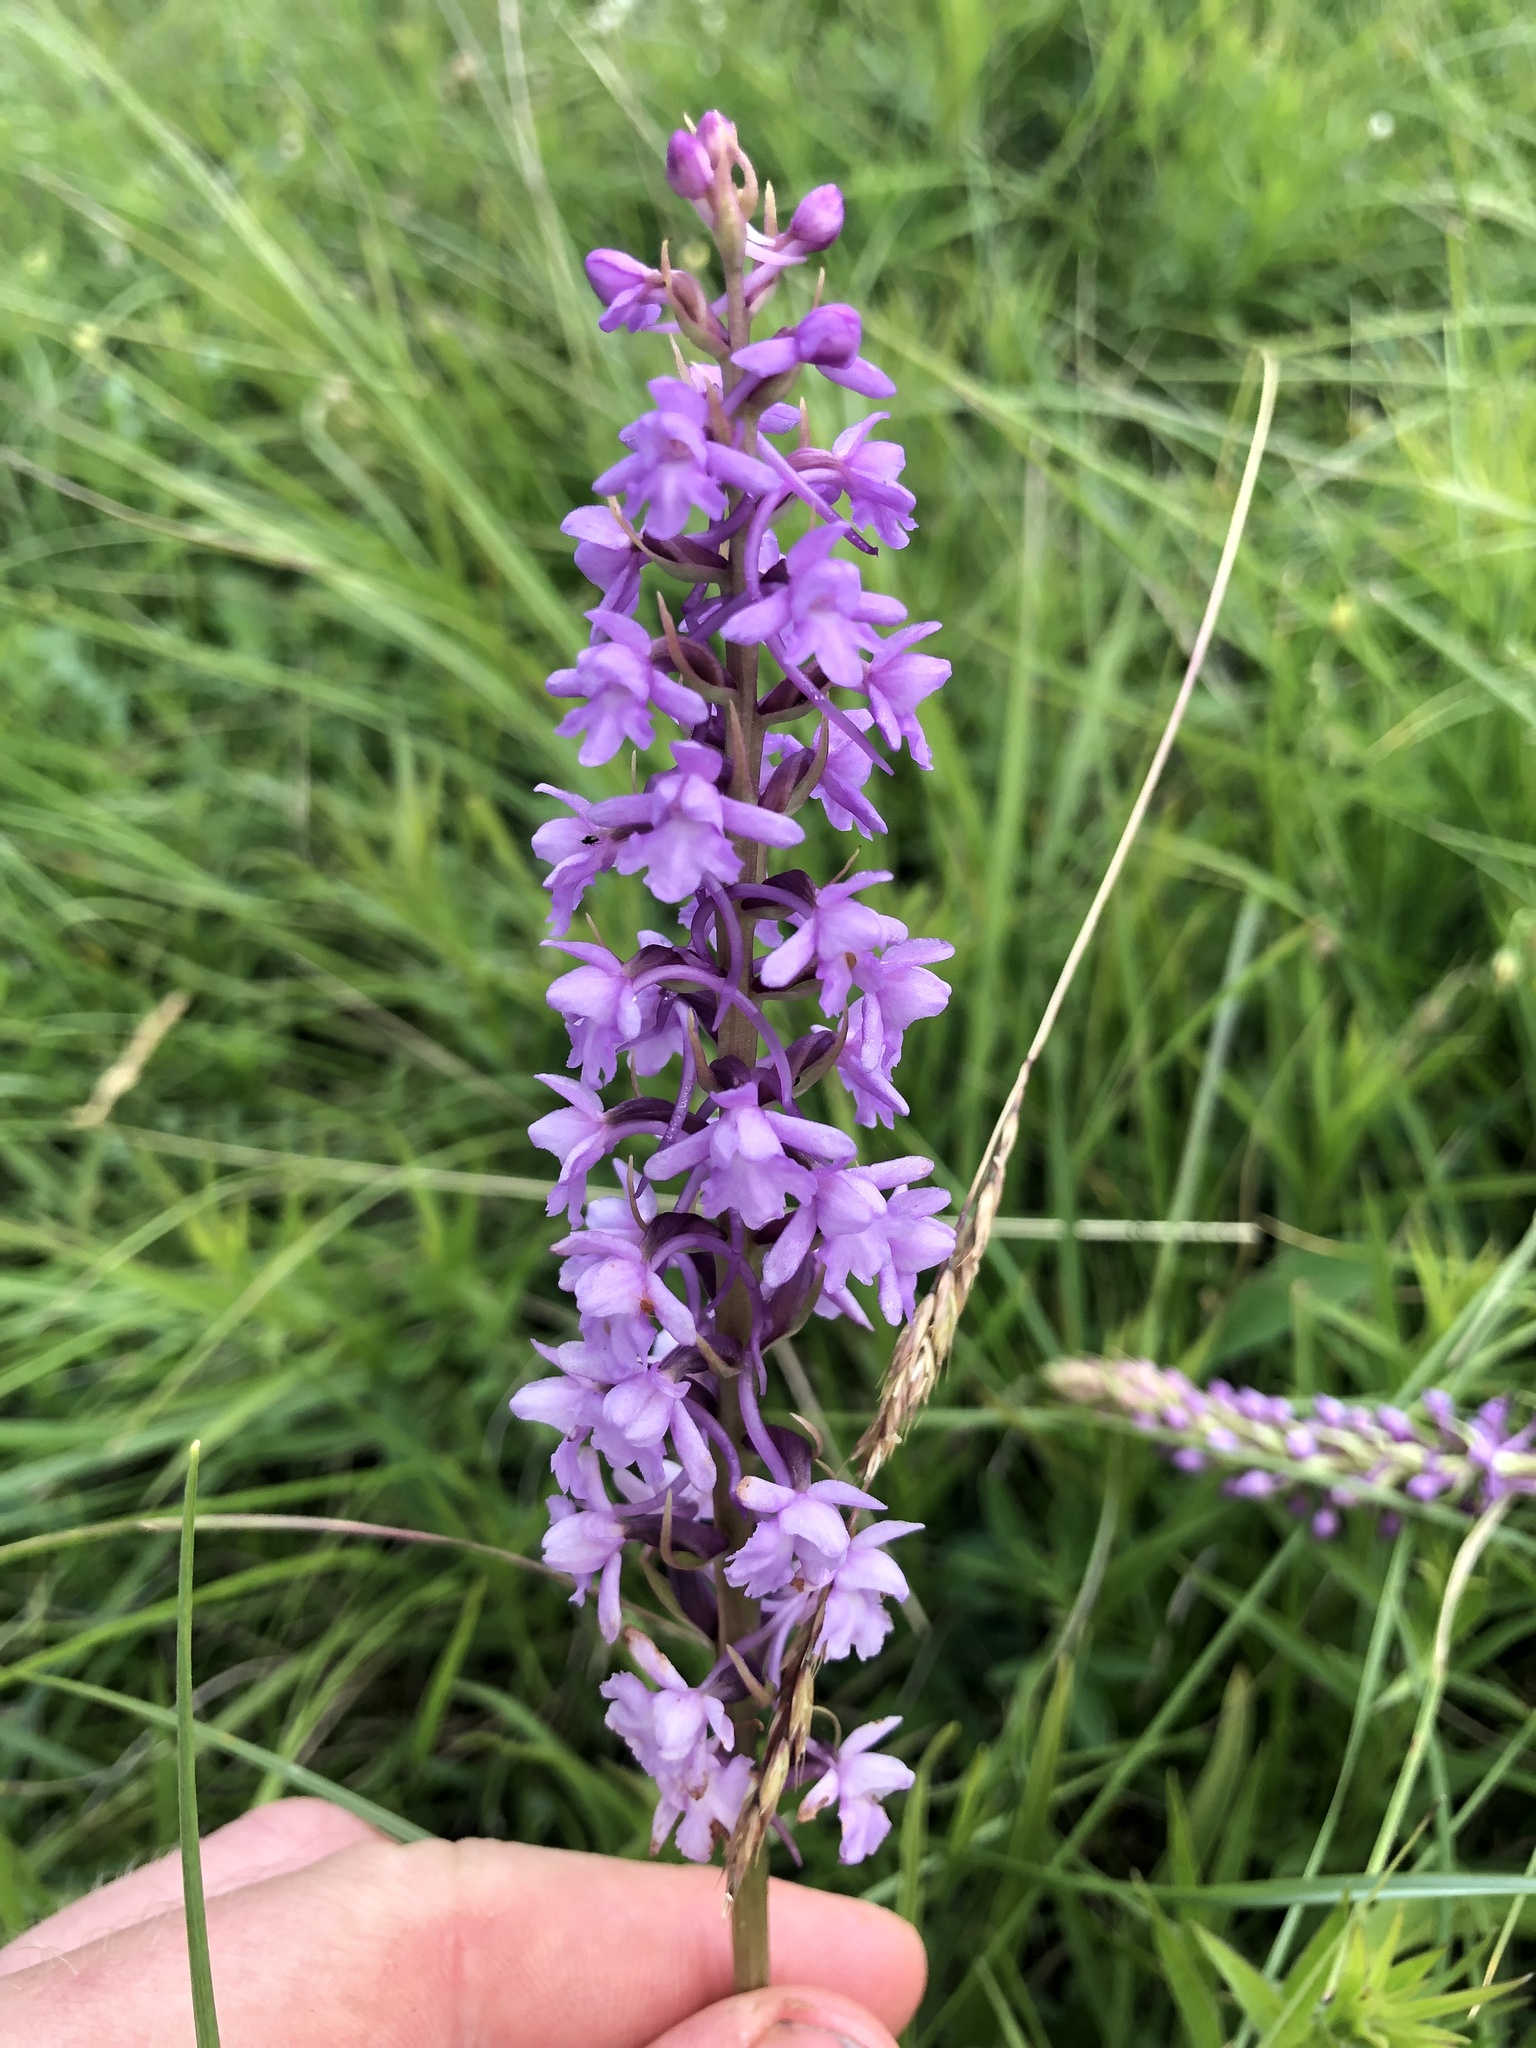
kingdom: Plantae
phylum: Tracheophyta
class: Liliopsida
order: Asparagales
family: Orchidaceae
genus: Gymnadenia
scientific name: Gymnadenia conopsea
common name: Fragrant orchid
